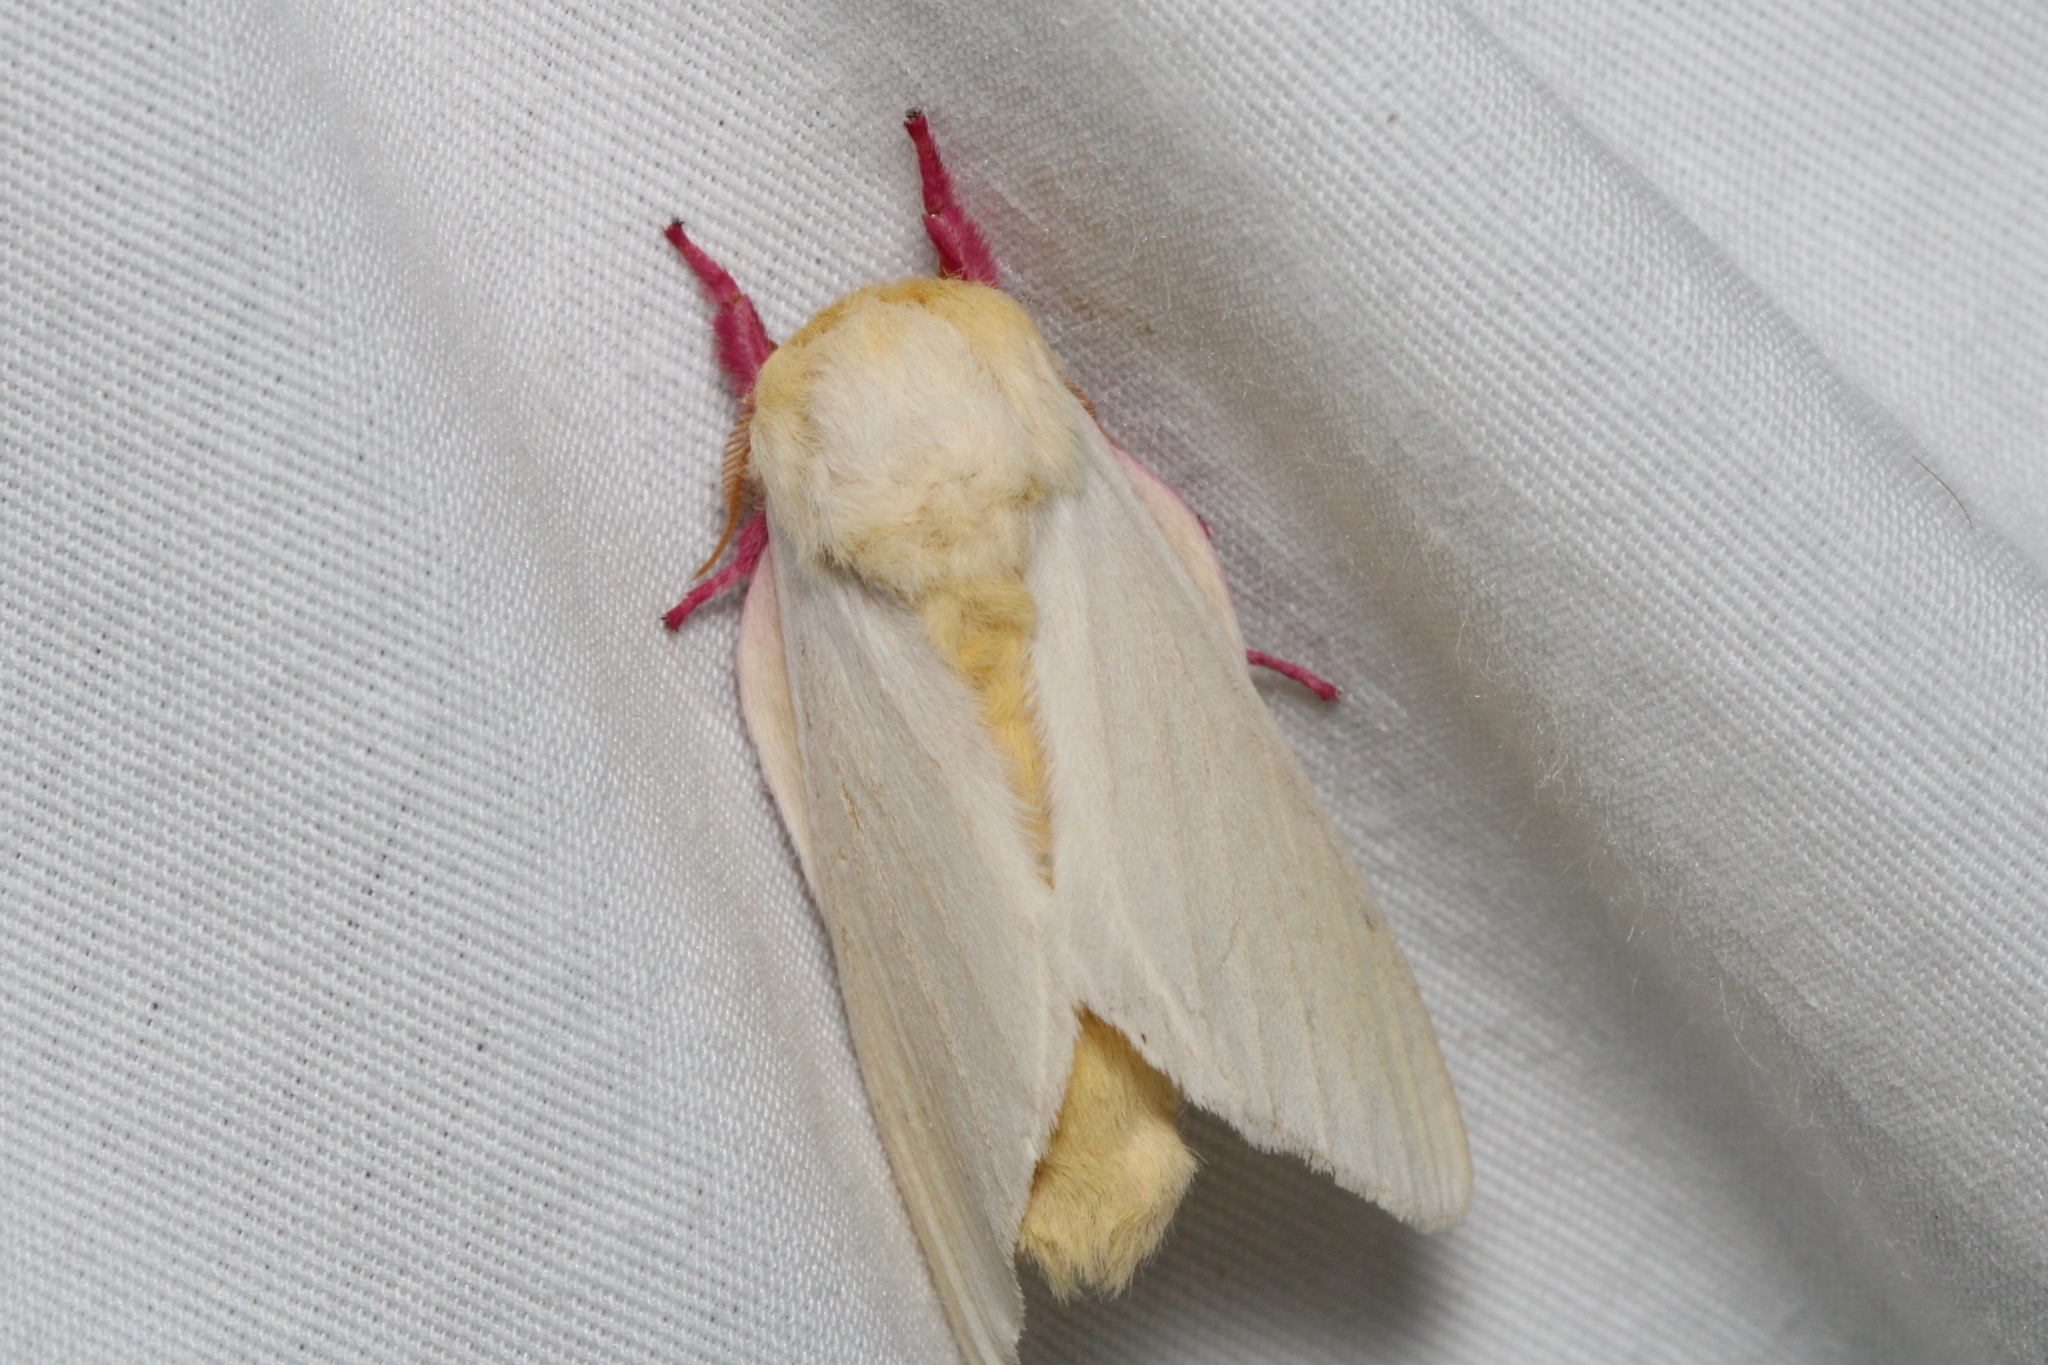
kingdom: Animalia
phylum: Arthropoda
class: Insecta
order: Lepidoptera
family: Saturniidae
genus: Dryocampa
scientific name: Dryocampa rubicunda
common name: Rosy maple moth
